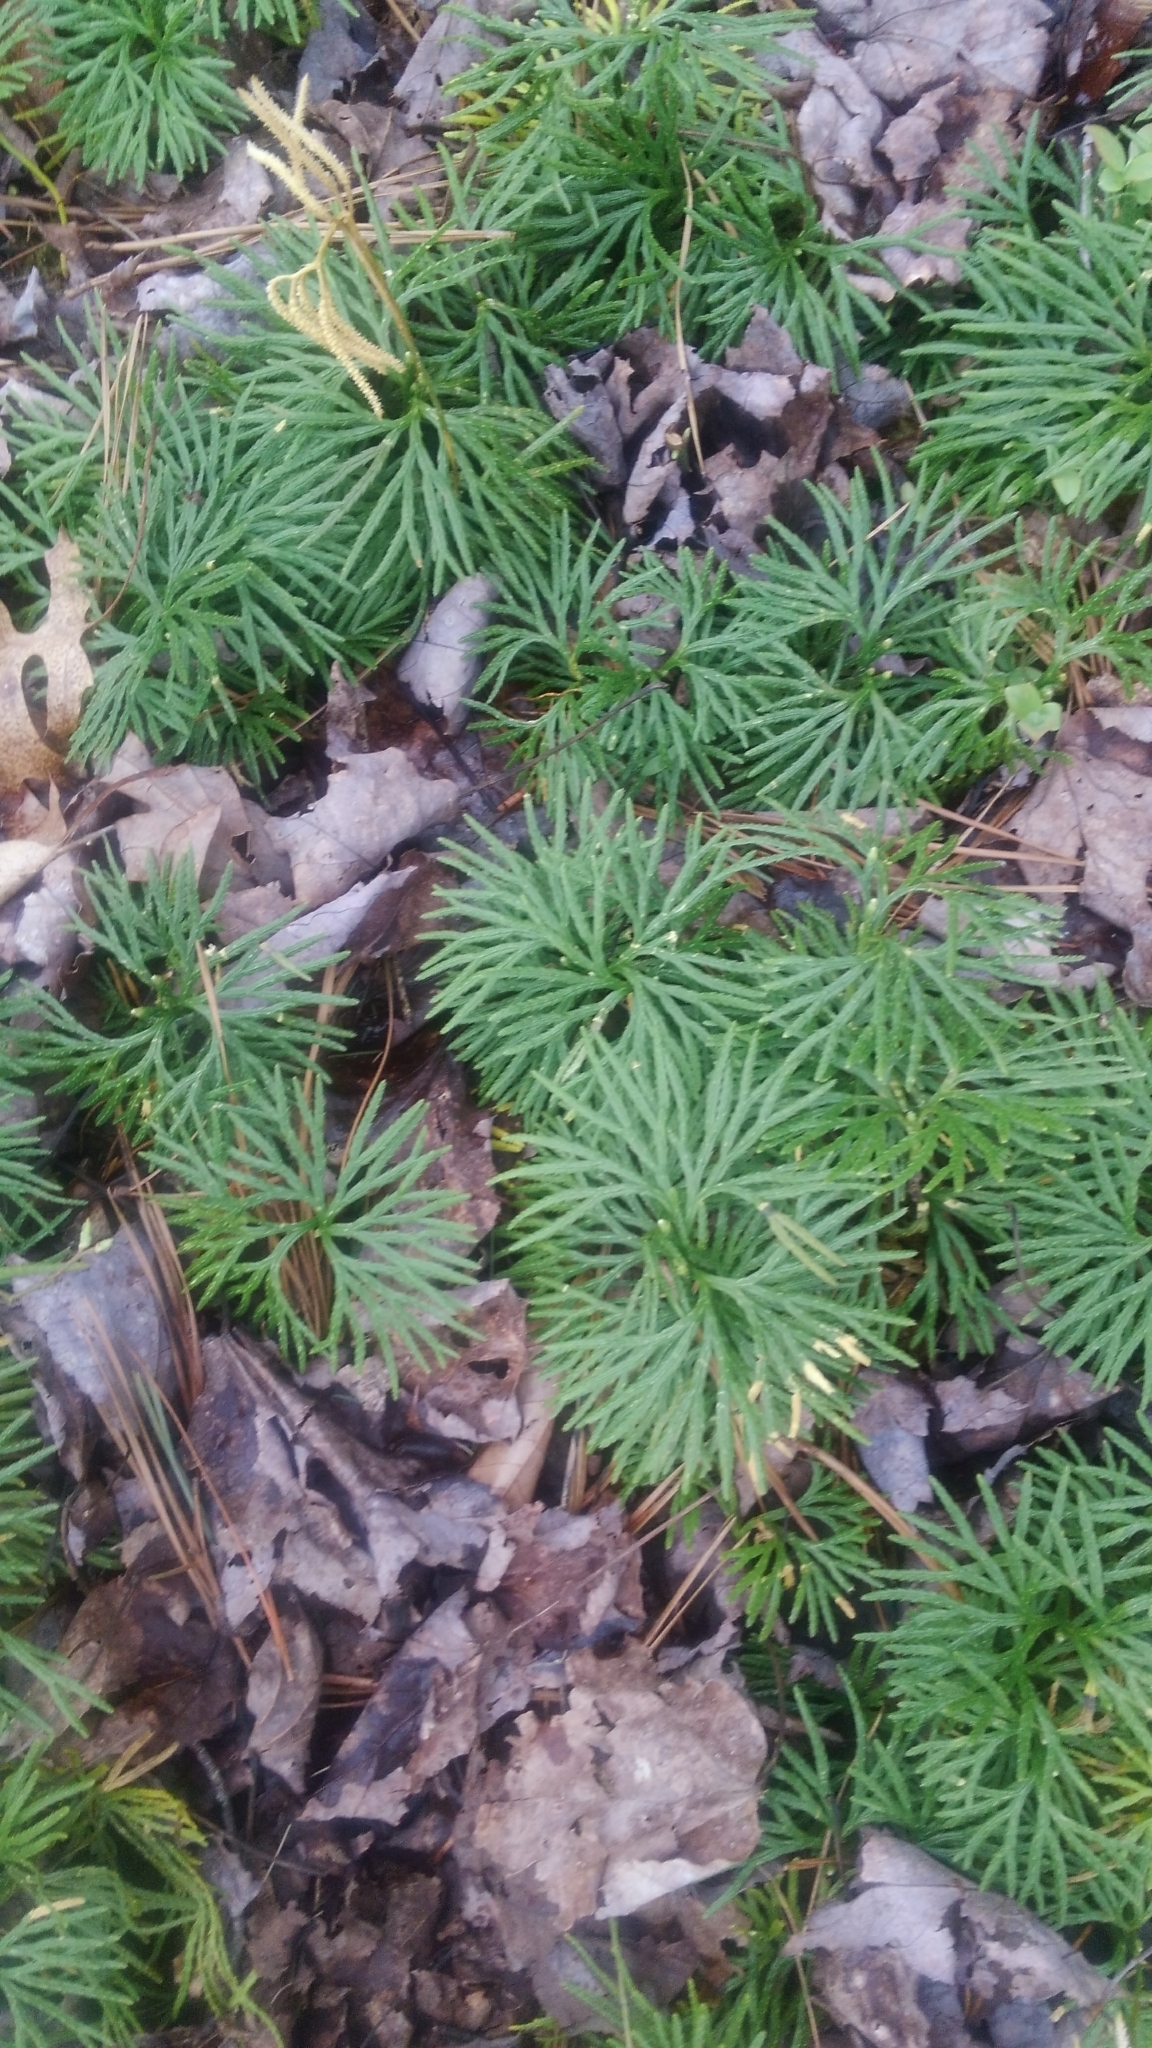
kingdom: Plantae
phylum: Tracheophyta
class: Lycopodiopsida
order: Lycopodiales
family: Lycopodiaceae
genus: Diphasiastrum
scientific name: Diphasiastrum digitatum
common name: Southern running-pine
